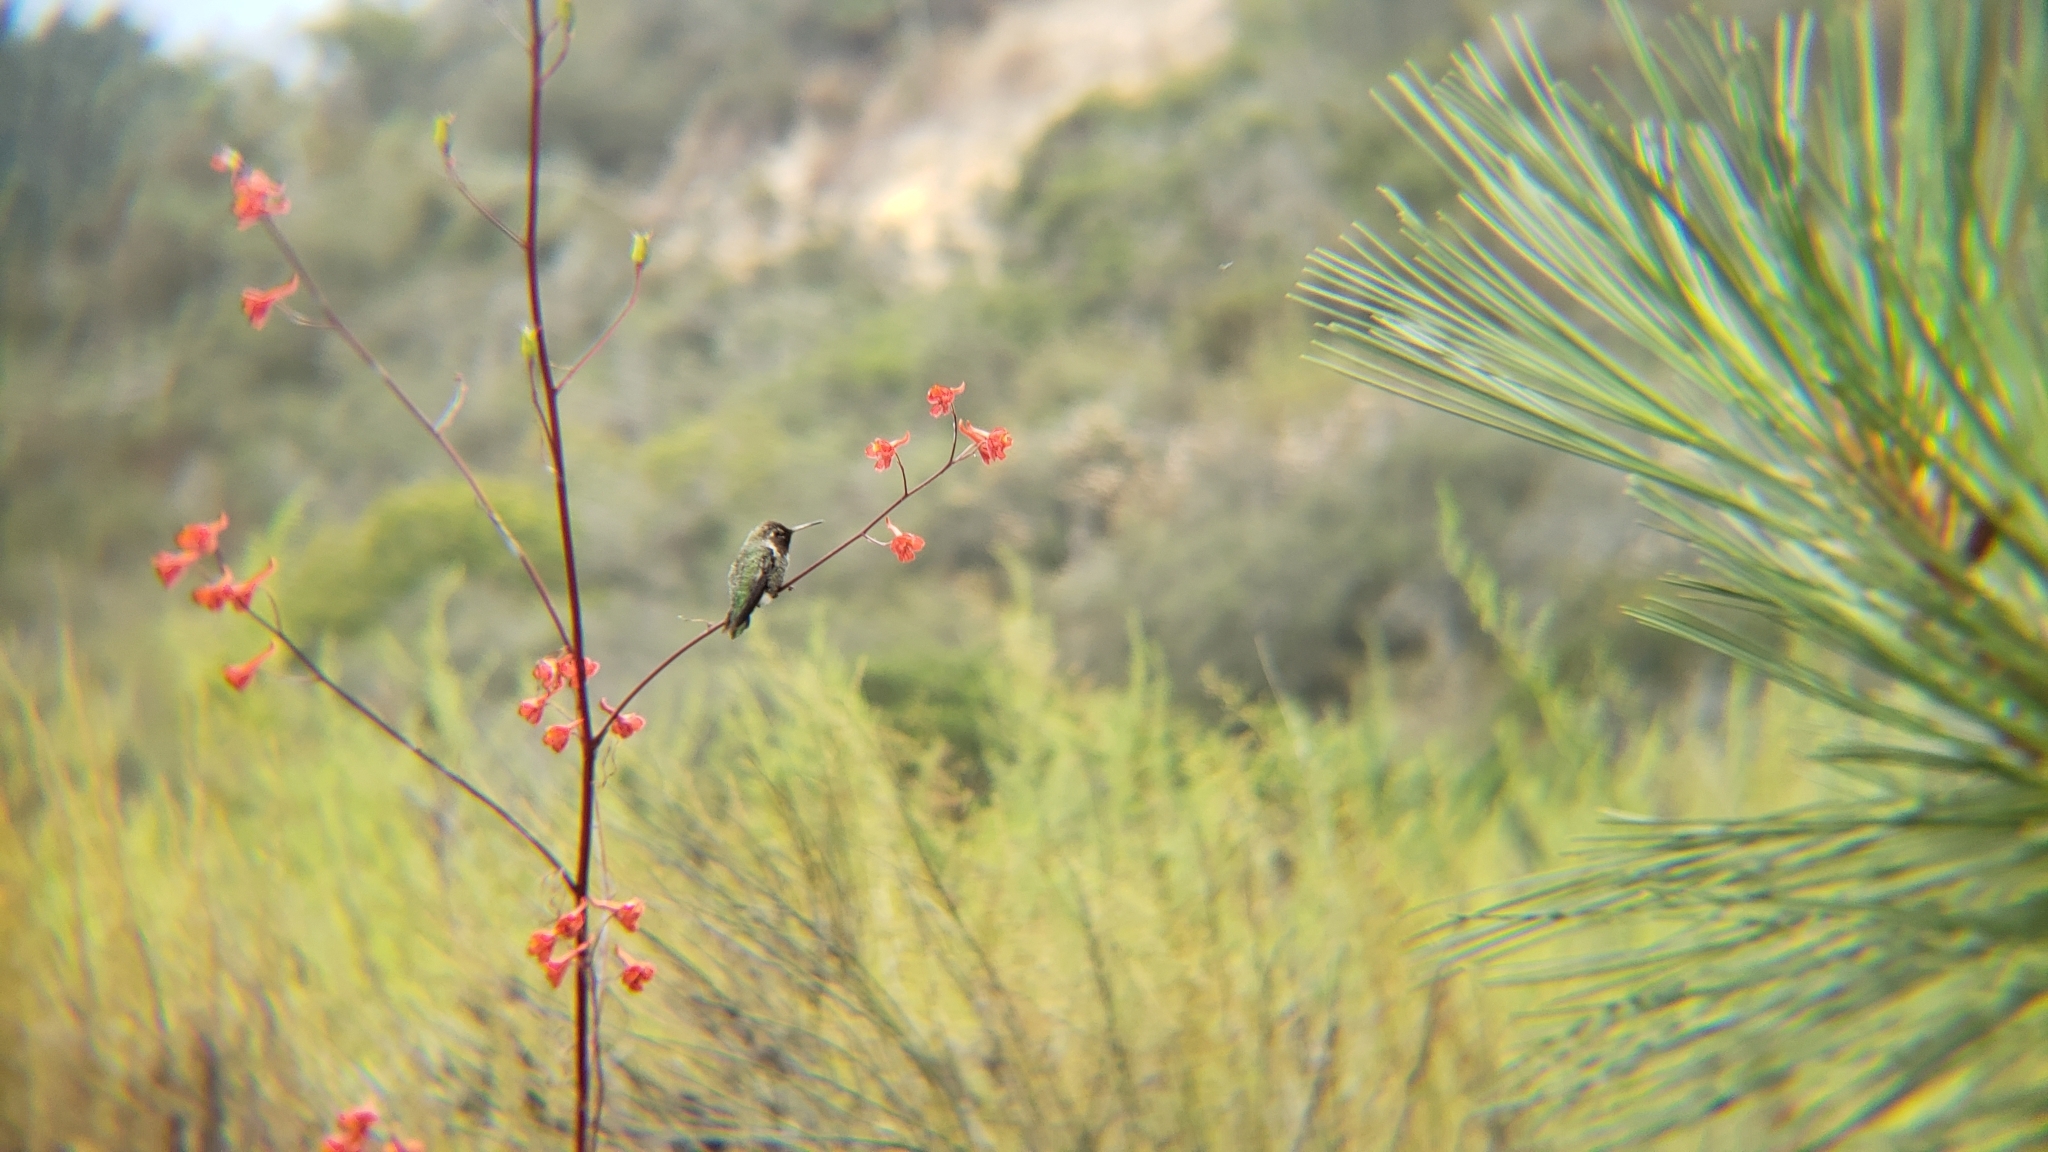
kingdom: Animalia
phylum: Chordata
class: Aves
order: Apodiformes
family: Trochilidae
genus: Calypte
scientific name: Calypte anna
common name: Anna's hummingbird
